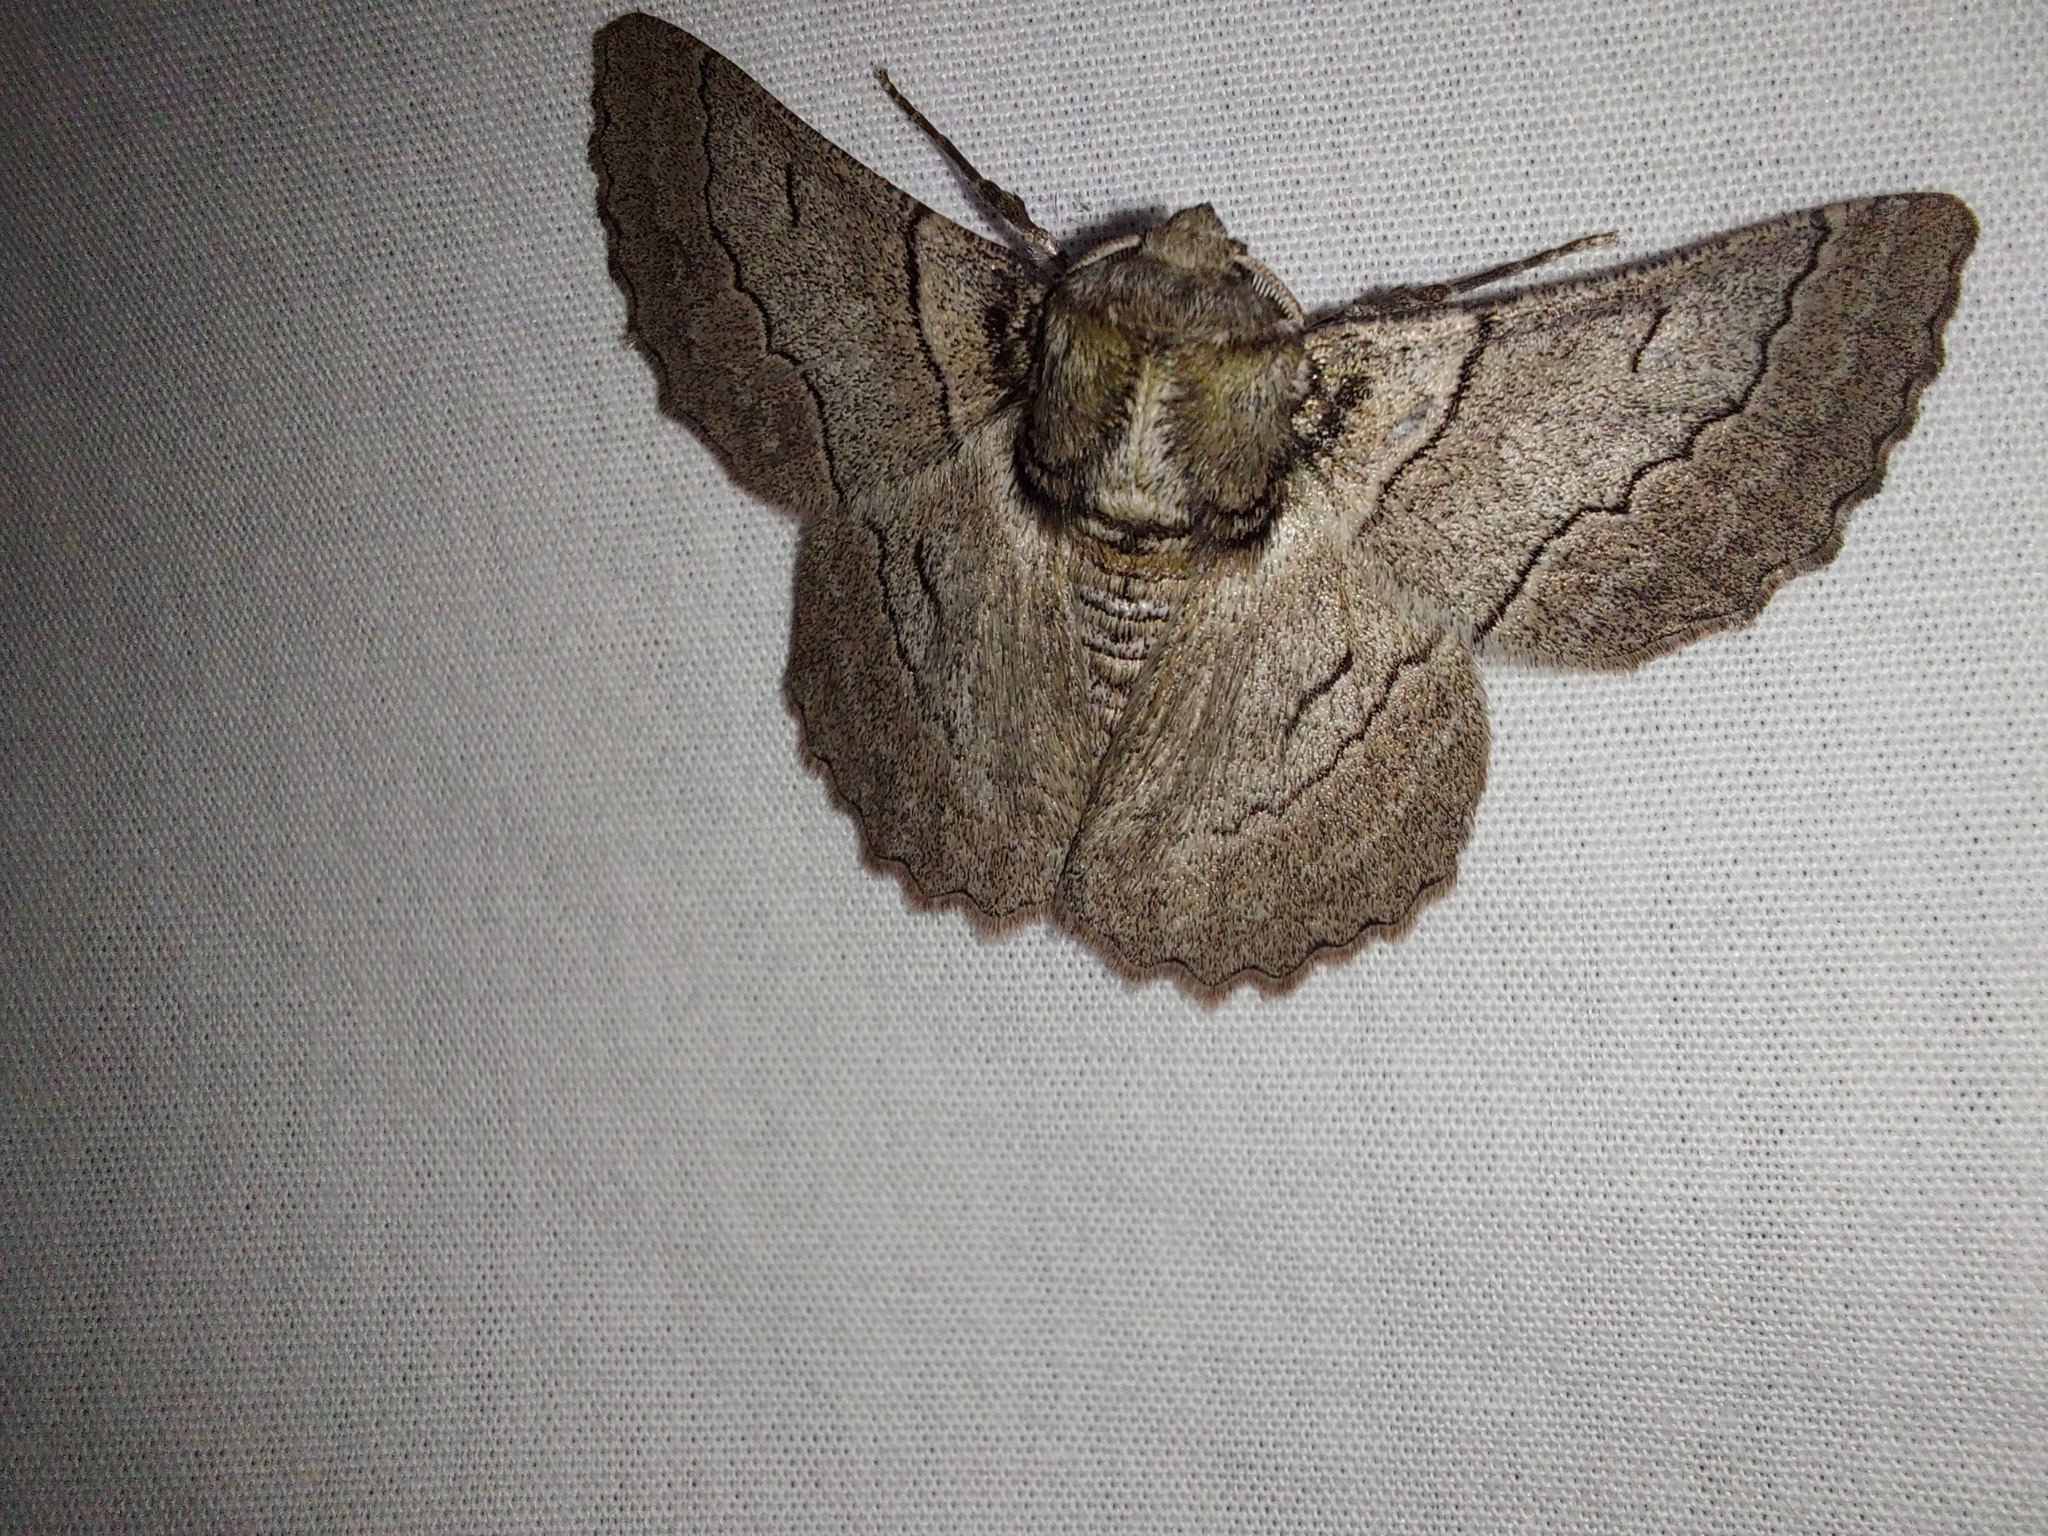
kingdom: Animalia
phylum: Arthropoda
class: Insecta
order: Lepidoptera
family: Geometridae
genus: Hypobapta
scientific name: Hypobapta tachyhalotaria
